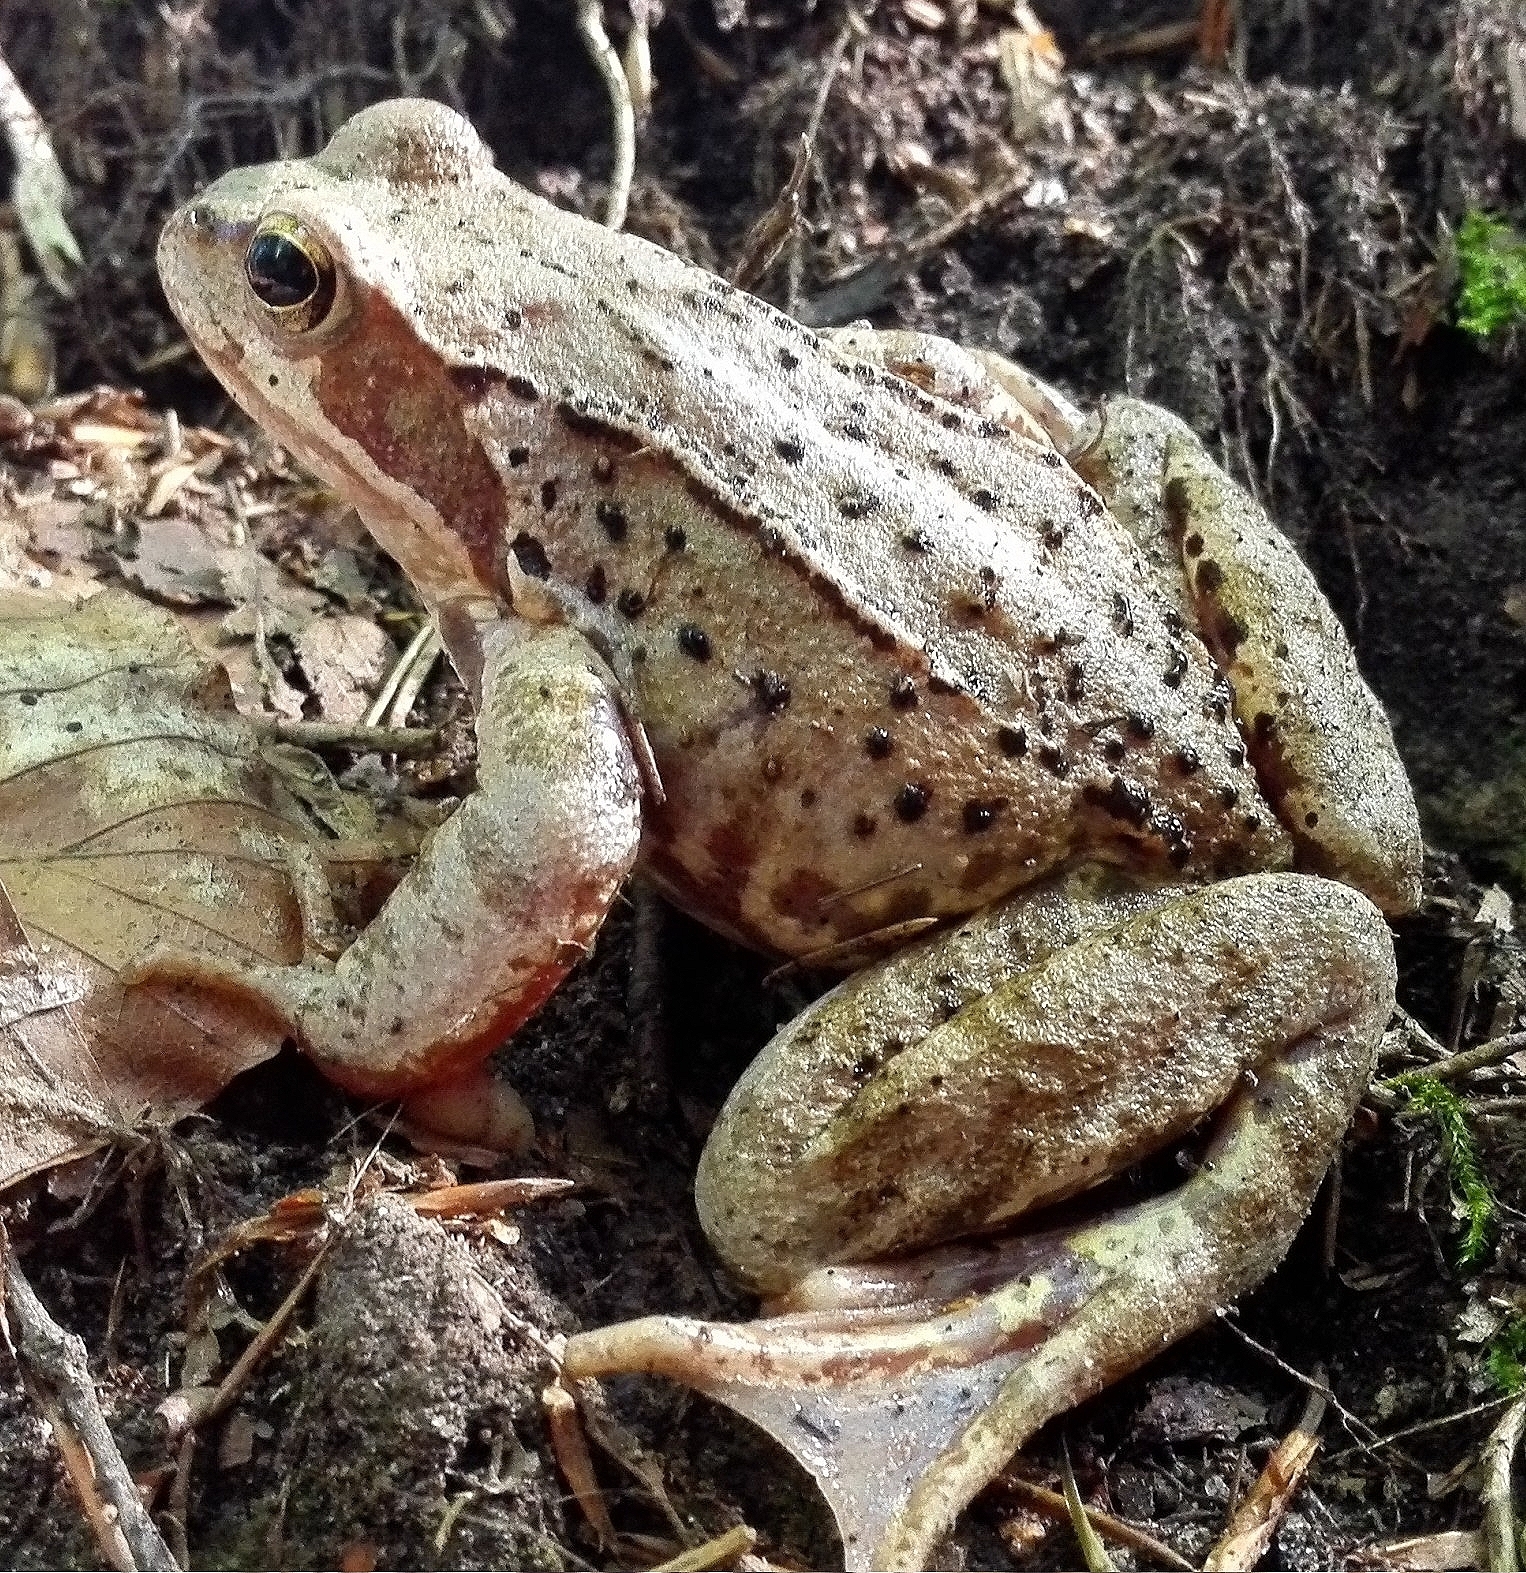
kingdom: Animalia
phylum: Chordata
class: Amphibia
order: Anura
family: Ranidae
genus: Rana
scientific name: Rana temporaria
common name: Common frog
